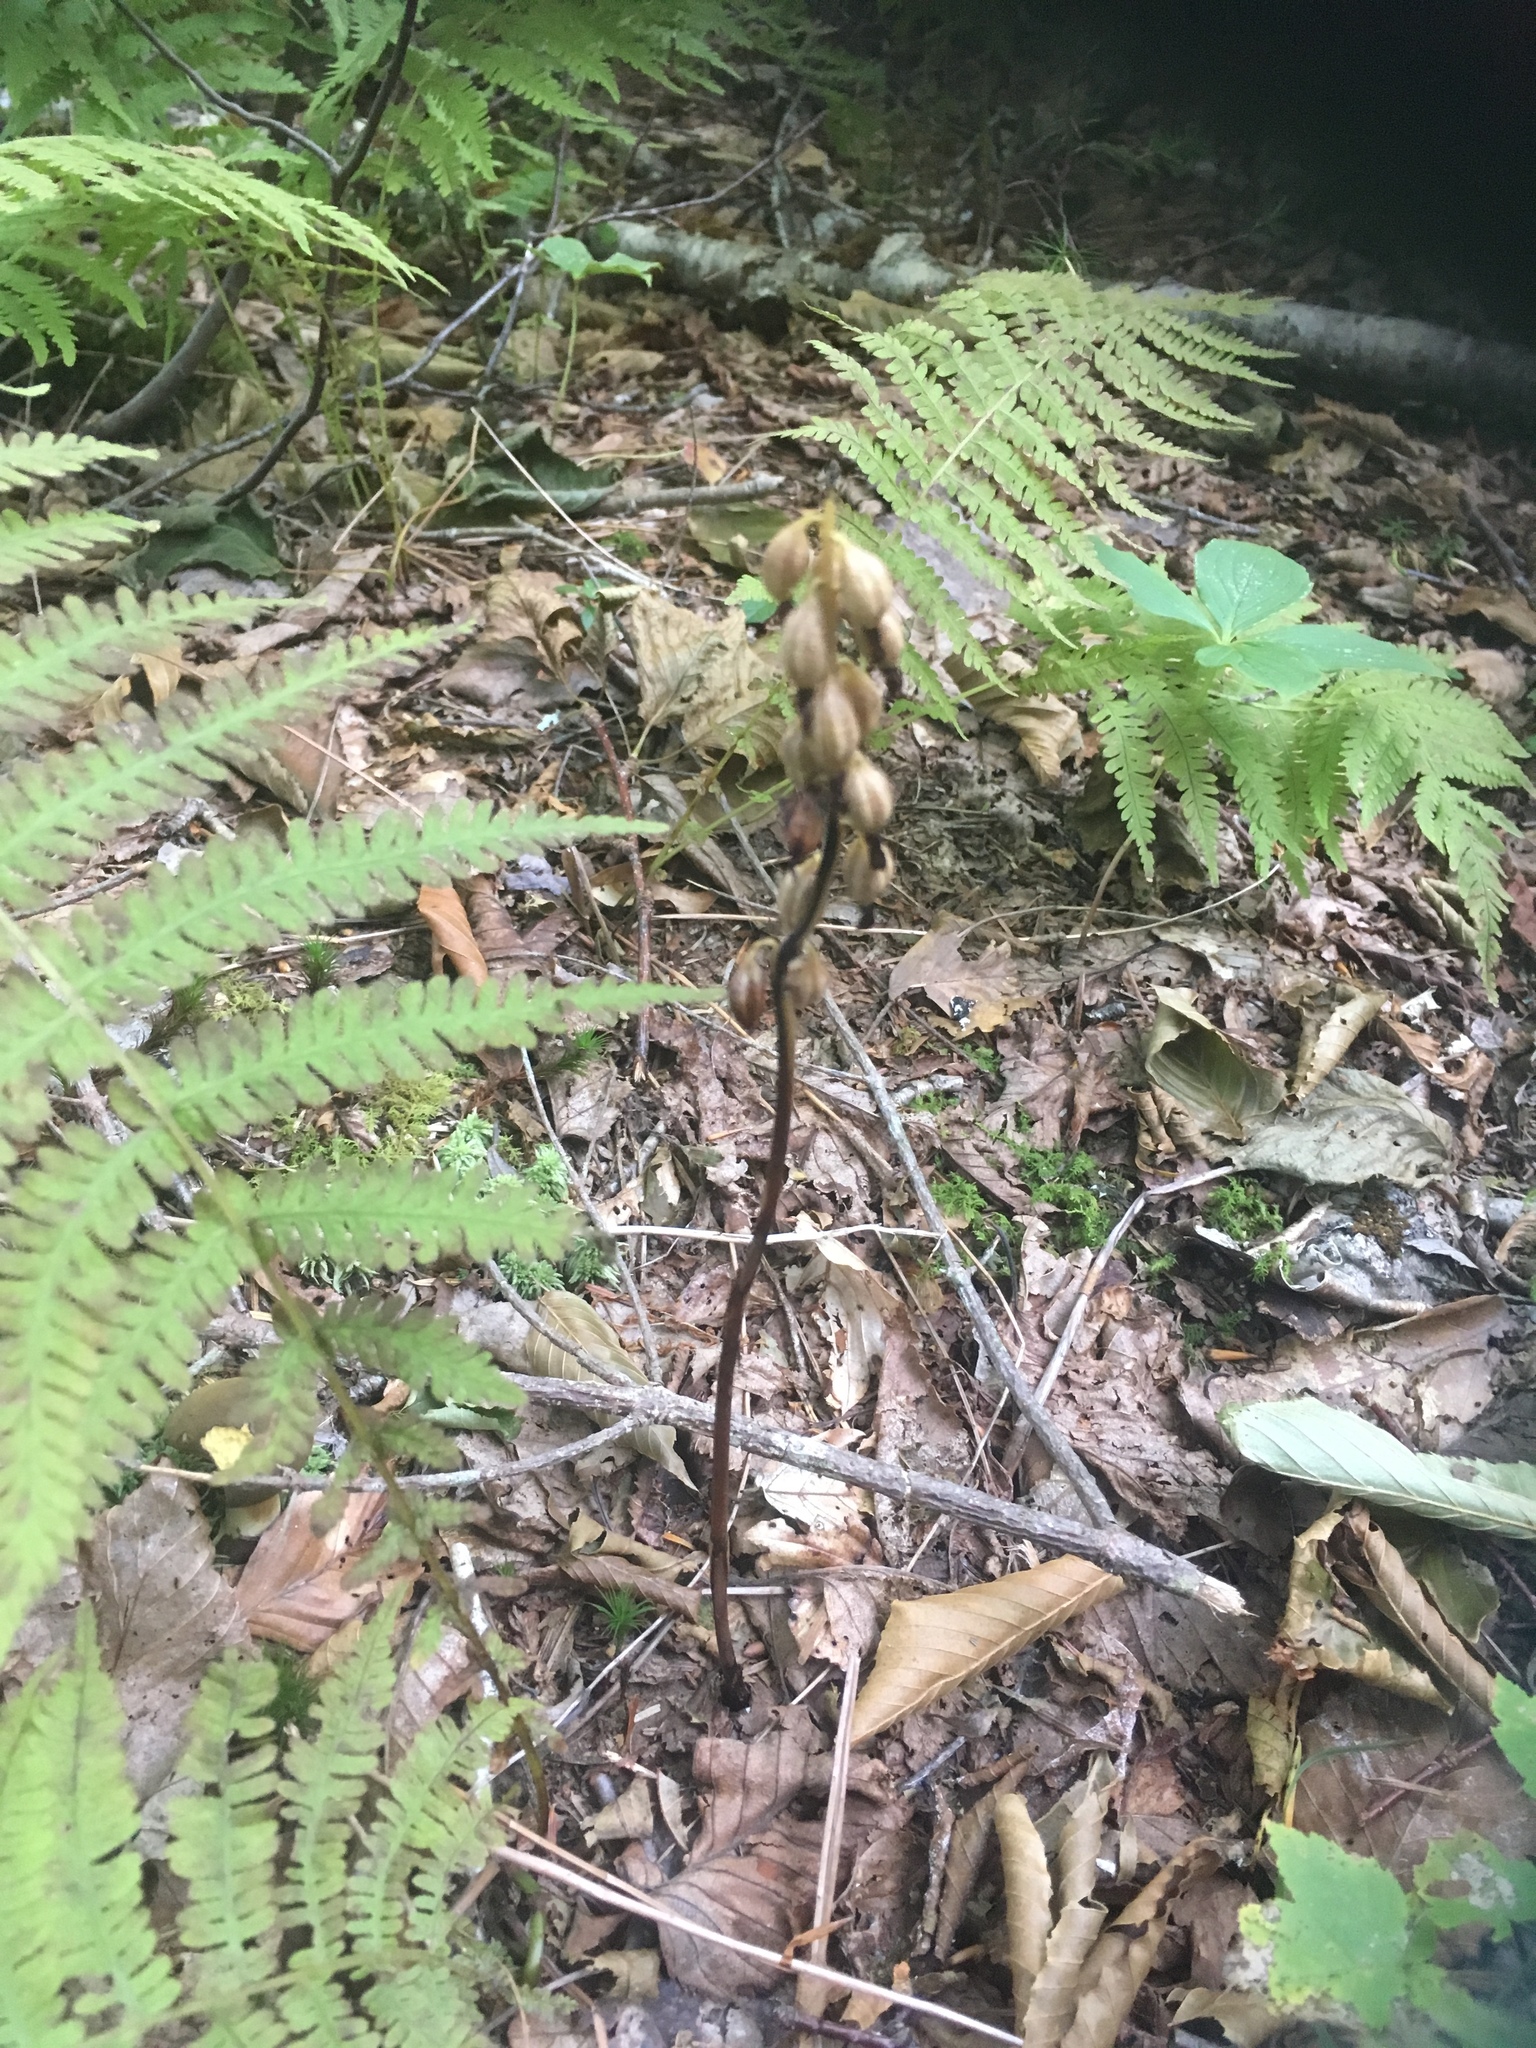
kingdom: Plantae
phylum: Tracheophyta
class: Liliopsida
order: Asparagales
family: Orchidaceae
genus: Corallorhiza
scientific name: Corallorhiza maculata
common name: Spotted coralroot
